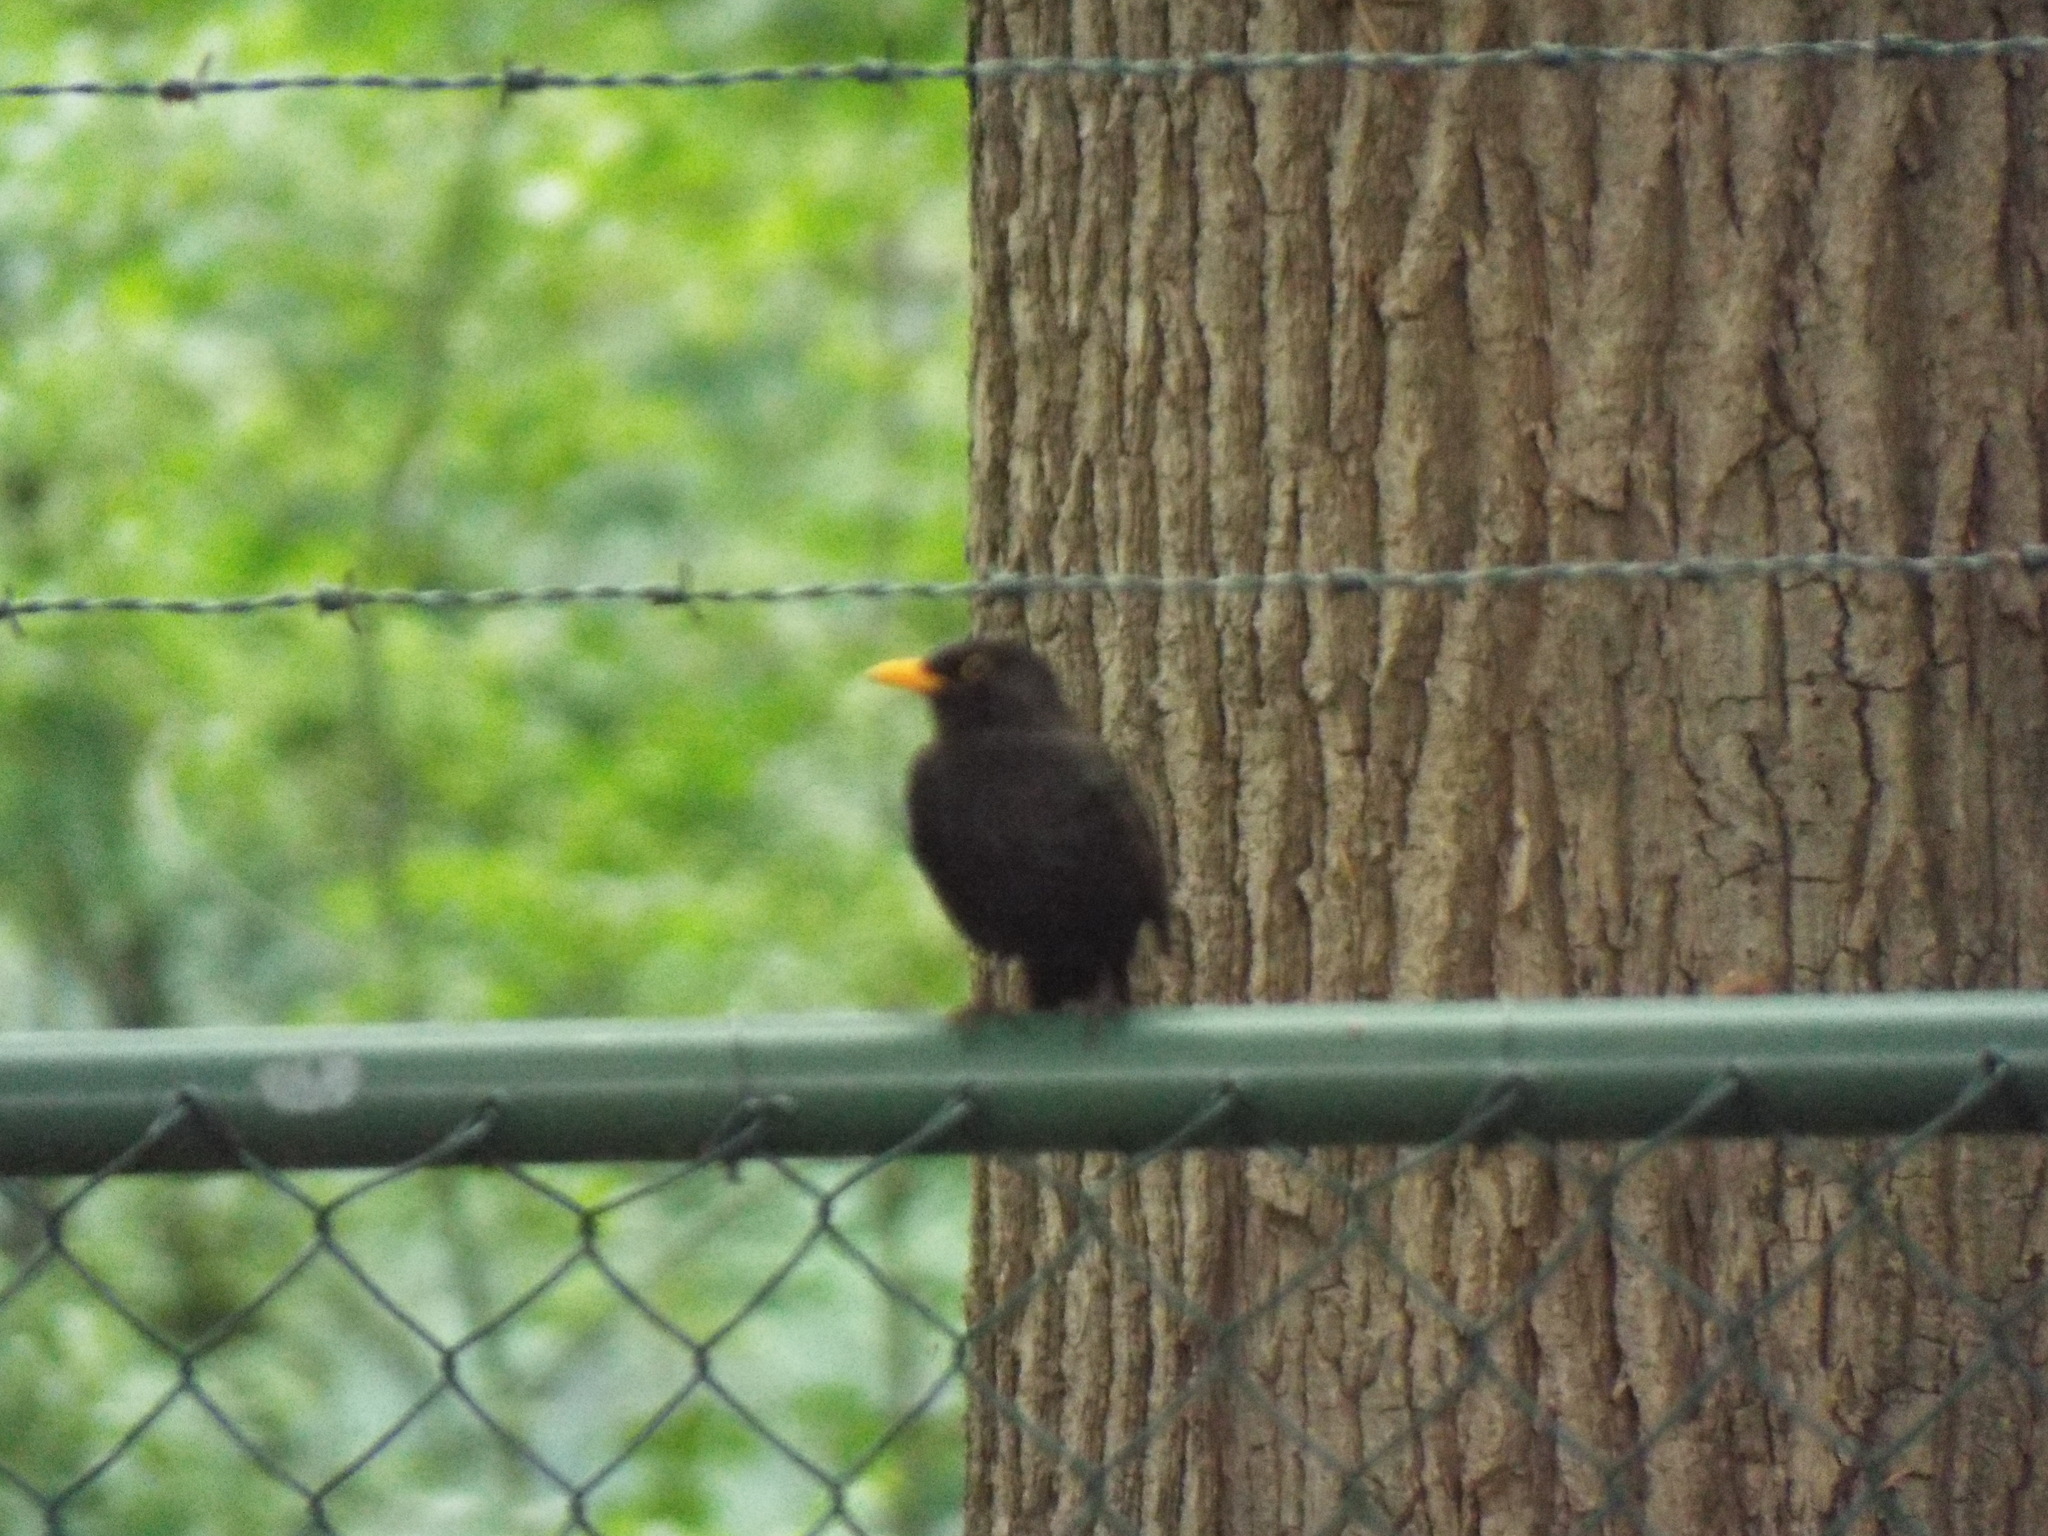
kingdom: Animalia
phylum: Chordata
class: Aves
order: Passeriformes
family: Turdidae
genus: Turdus
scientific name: Turdus merula
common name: Common blackbird
